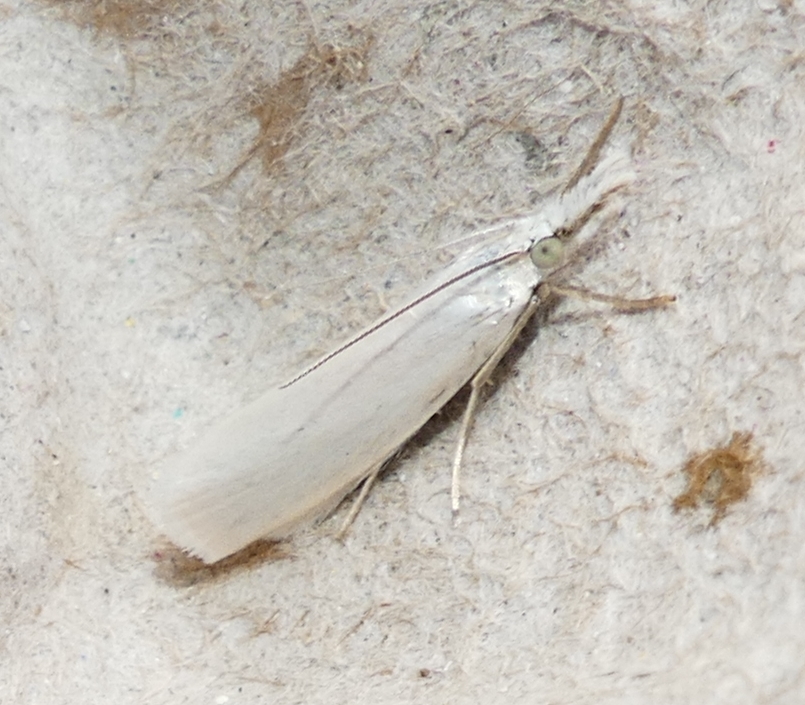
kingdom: Animalia
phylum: Arthropoda
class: Insecta
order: Lepidoptera
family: Crambidae
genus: Crambus
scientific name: Crambus perlellus
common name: Yellow satin veneer
